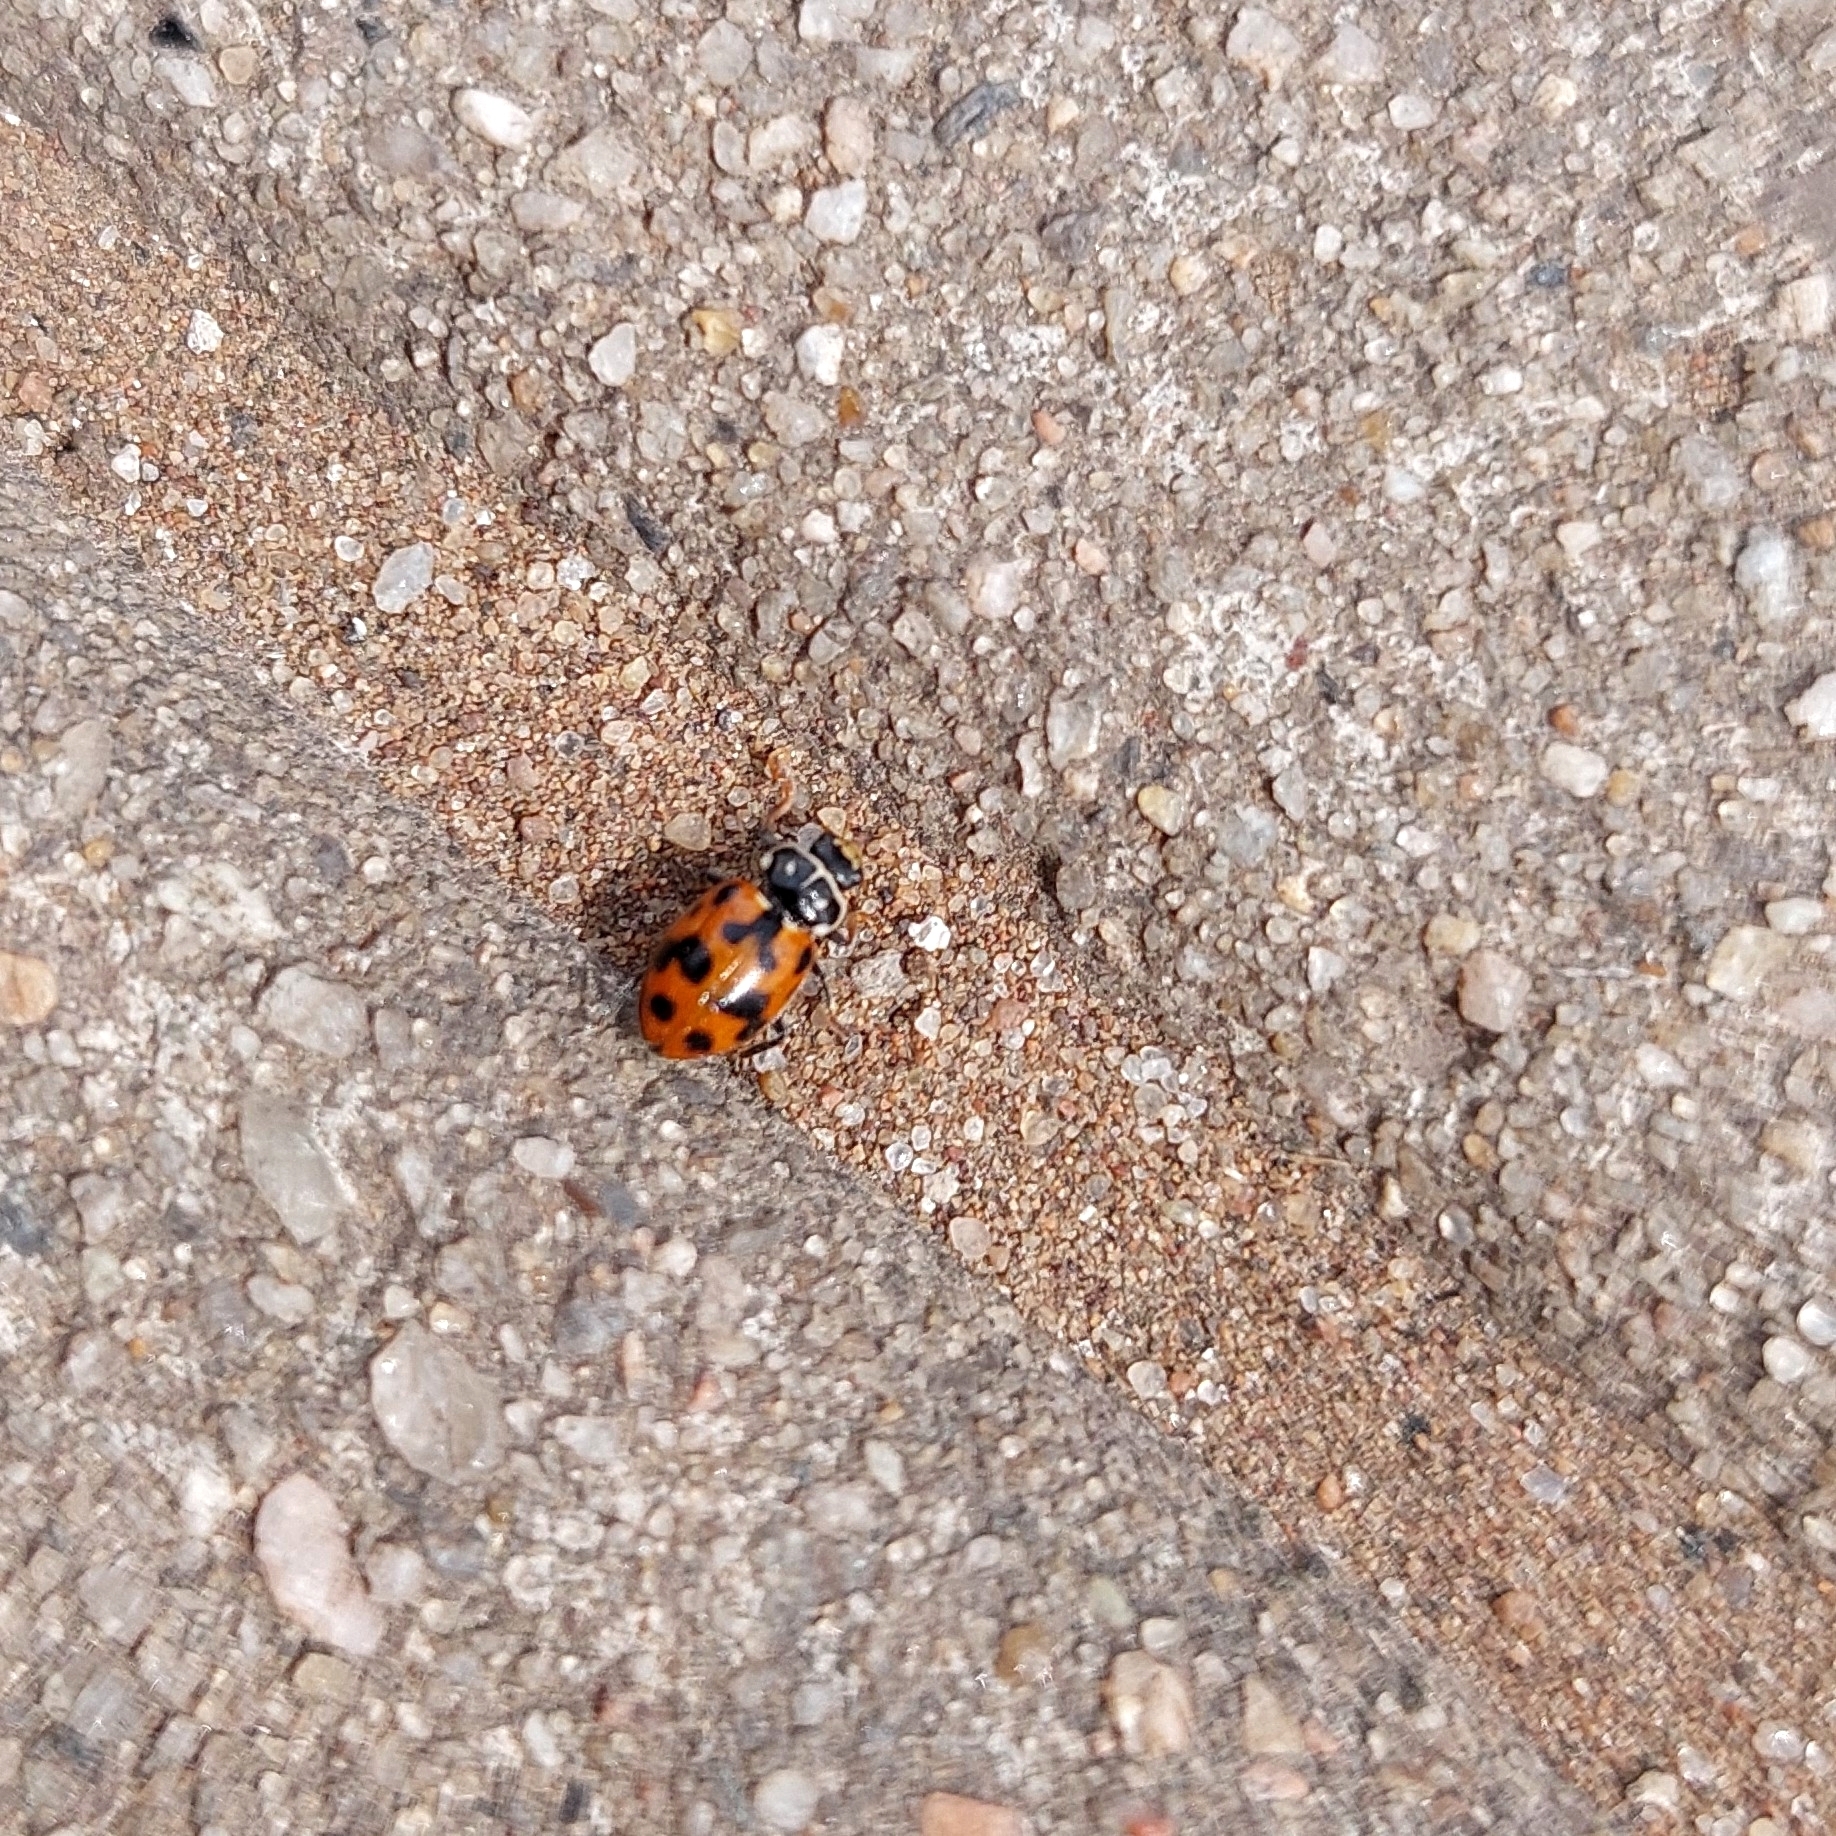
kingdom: Animalia
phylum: Arthropoda
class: Insecta
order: Coleoptera
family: Coccinellidae
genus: Hippodamia
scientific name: Hippodamia variegata
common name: Ladybird beetle
